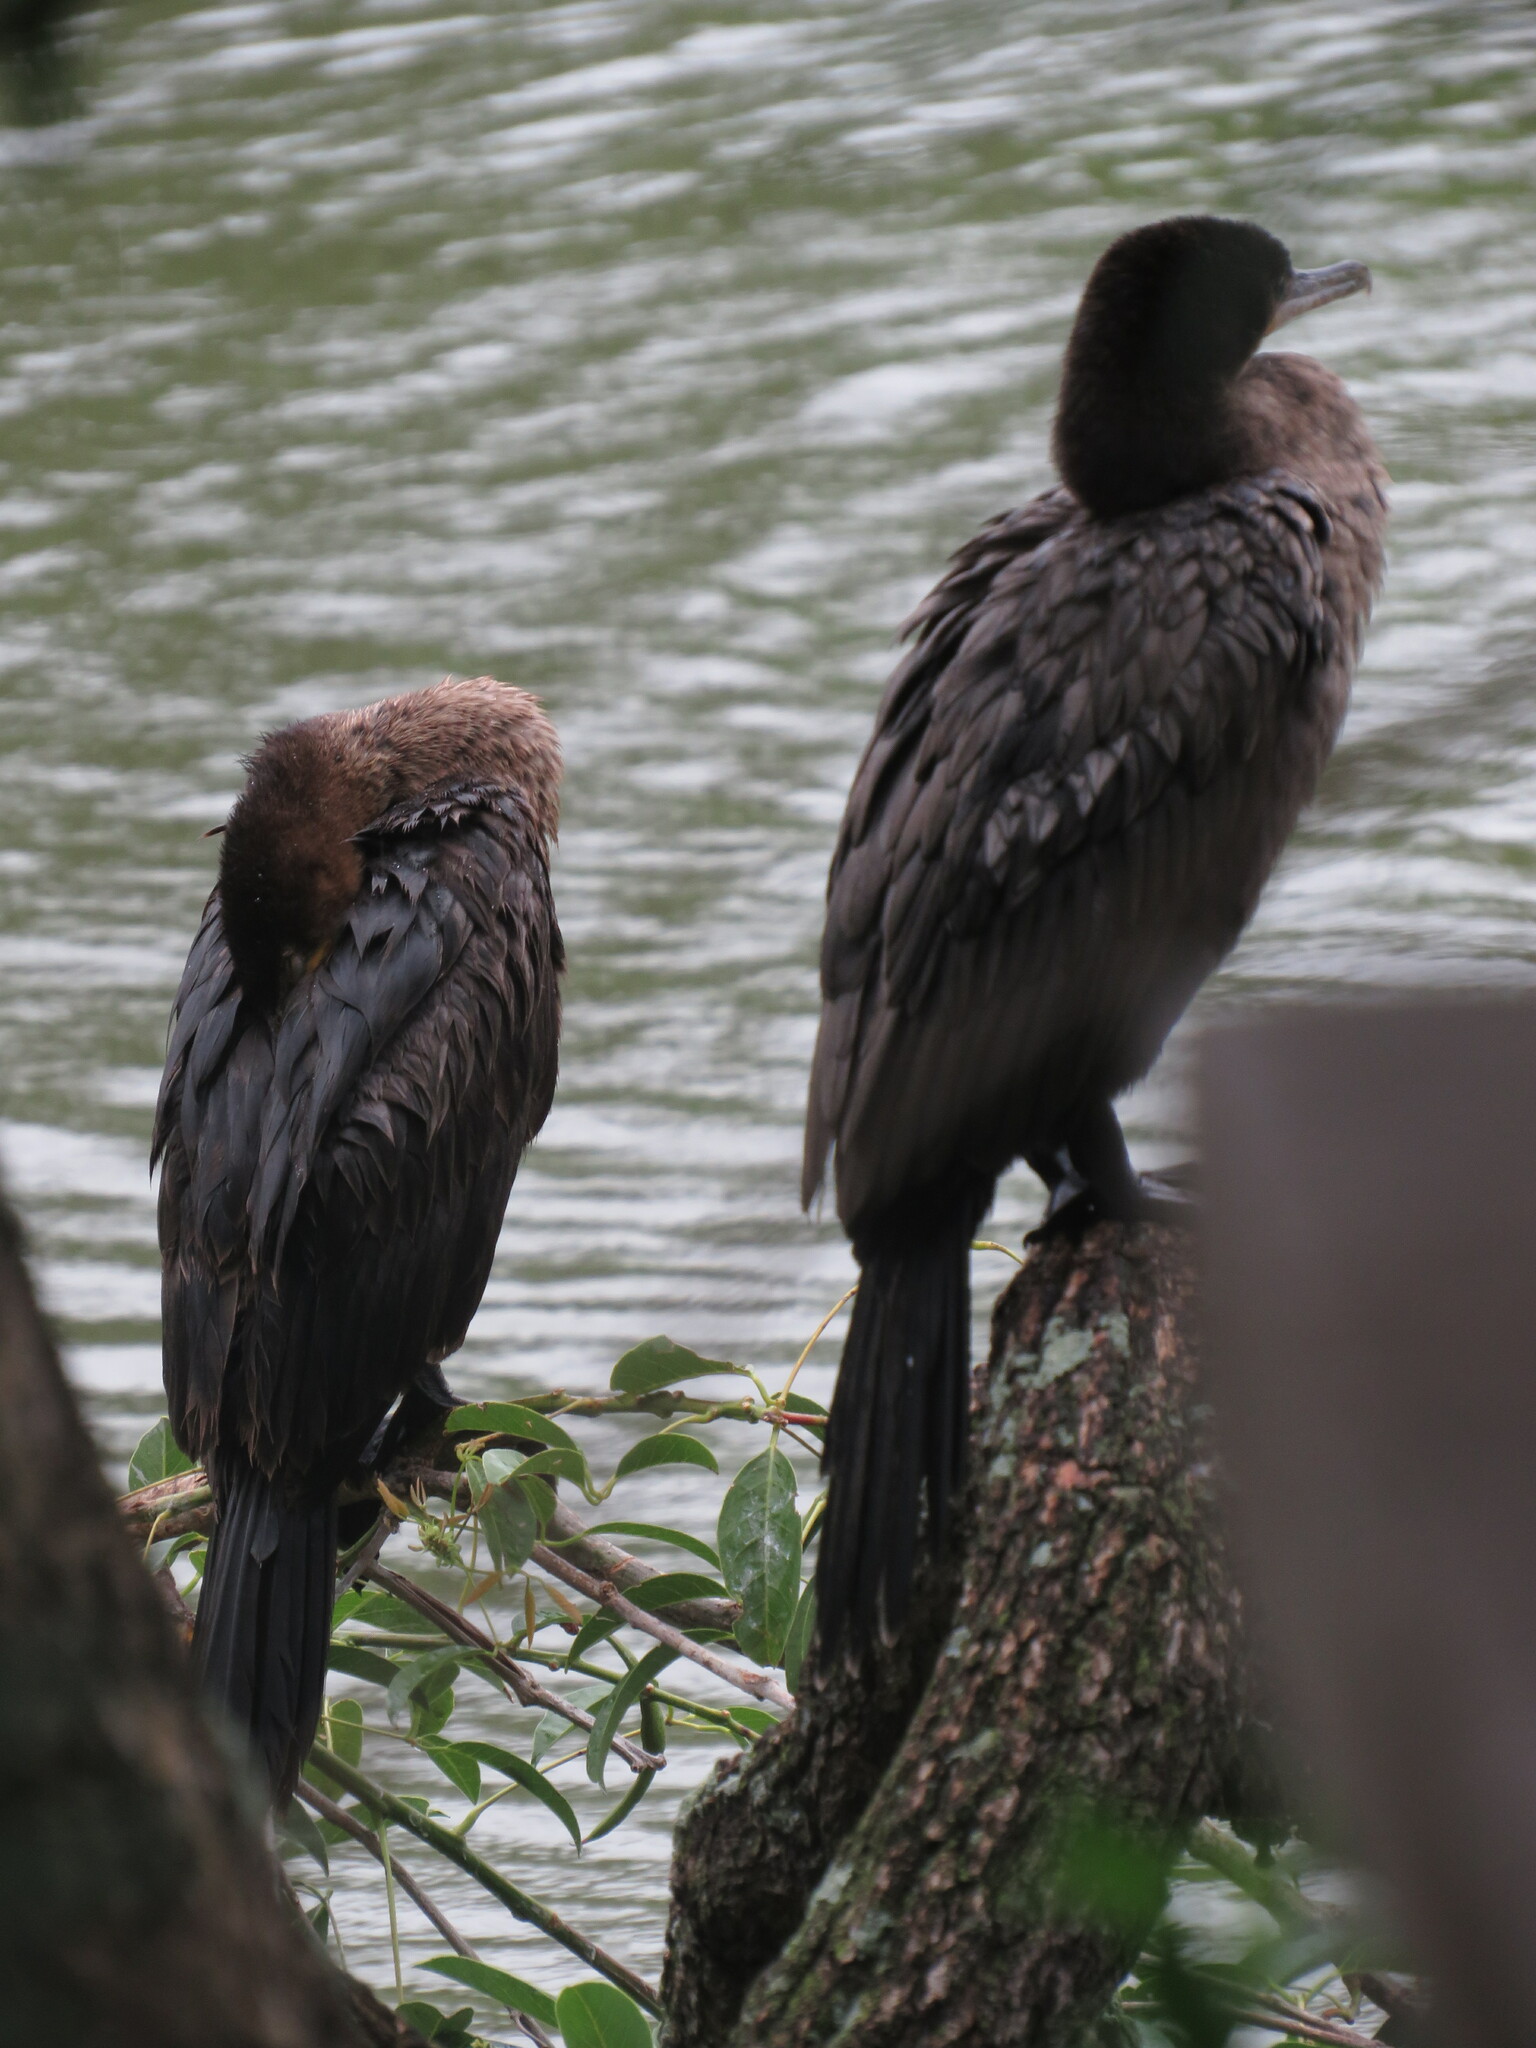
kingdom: Animalia
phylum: Chordata
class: Aves
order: Suliformes
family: Phalacrocoracidae
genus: Phalacrocorax
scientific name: Phalacrocorax brasilianus
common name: Neotropic cormorant
